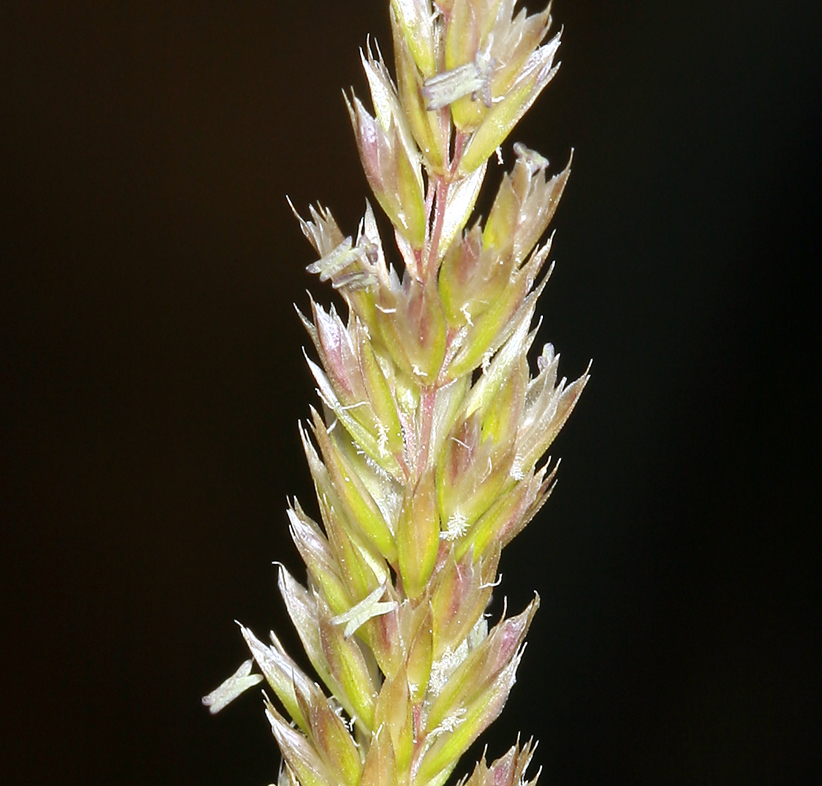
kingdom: Plantae
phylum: Tracheophyta
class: Liliopsida
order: Poales
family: Poaceae
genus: Koeleria
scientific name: Koeleria macrantha
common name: Crested hair-grass
